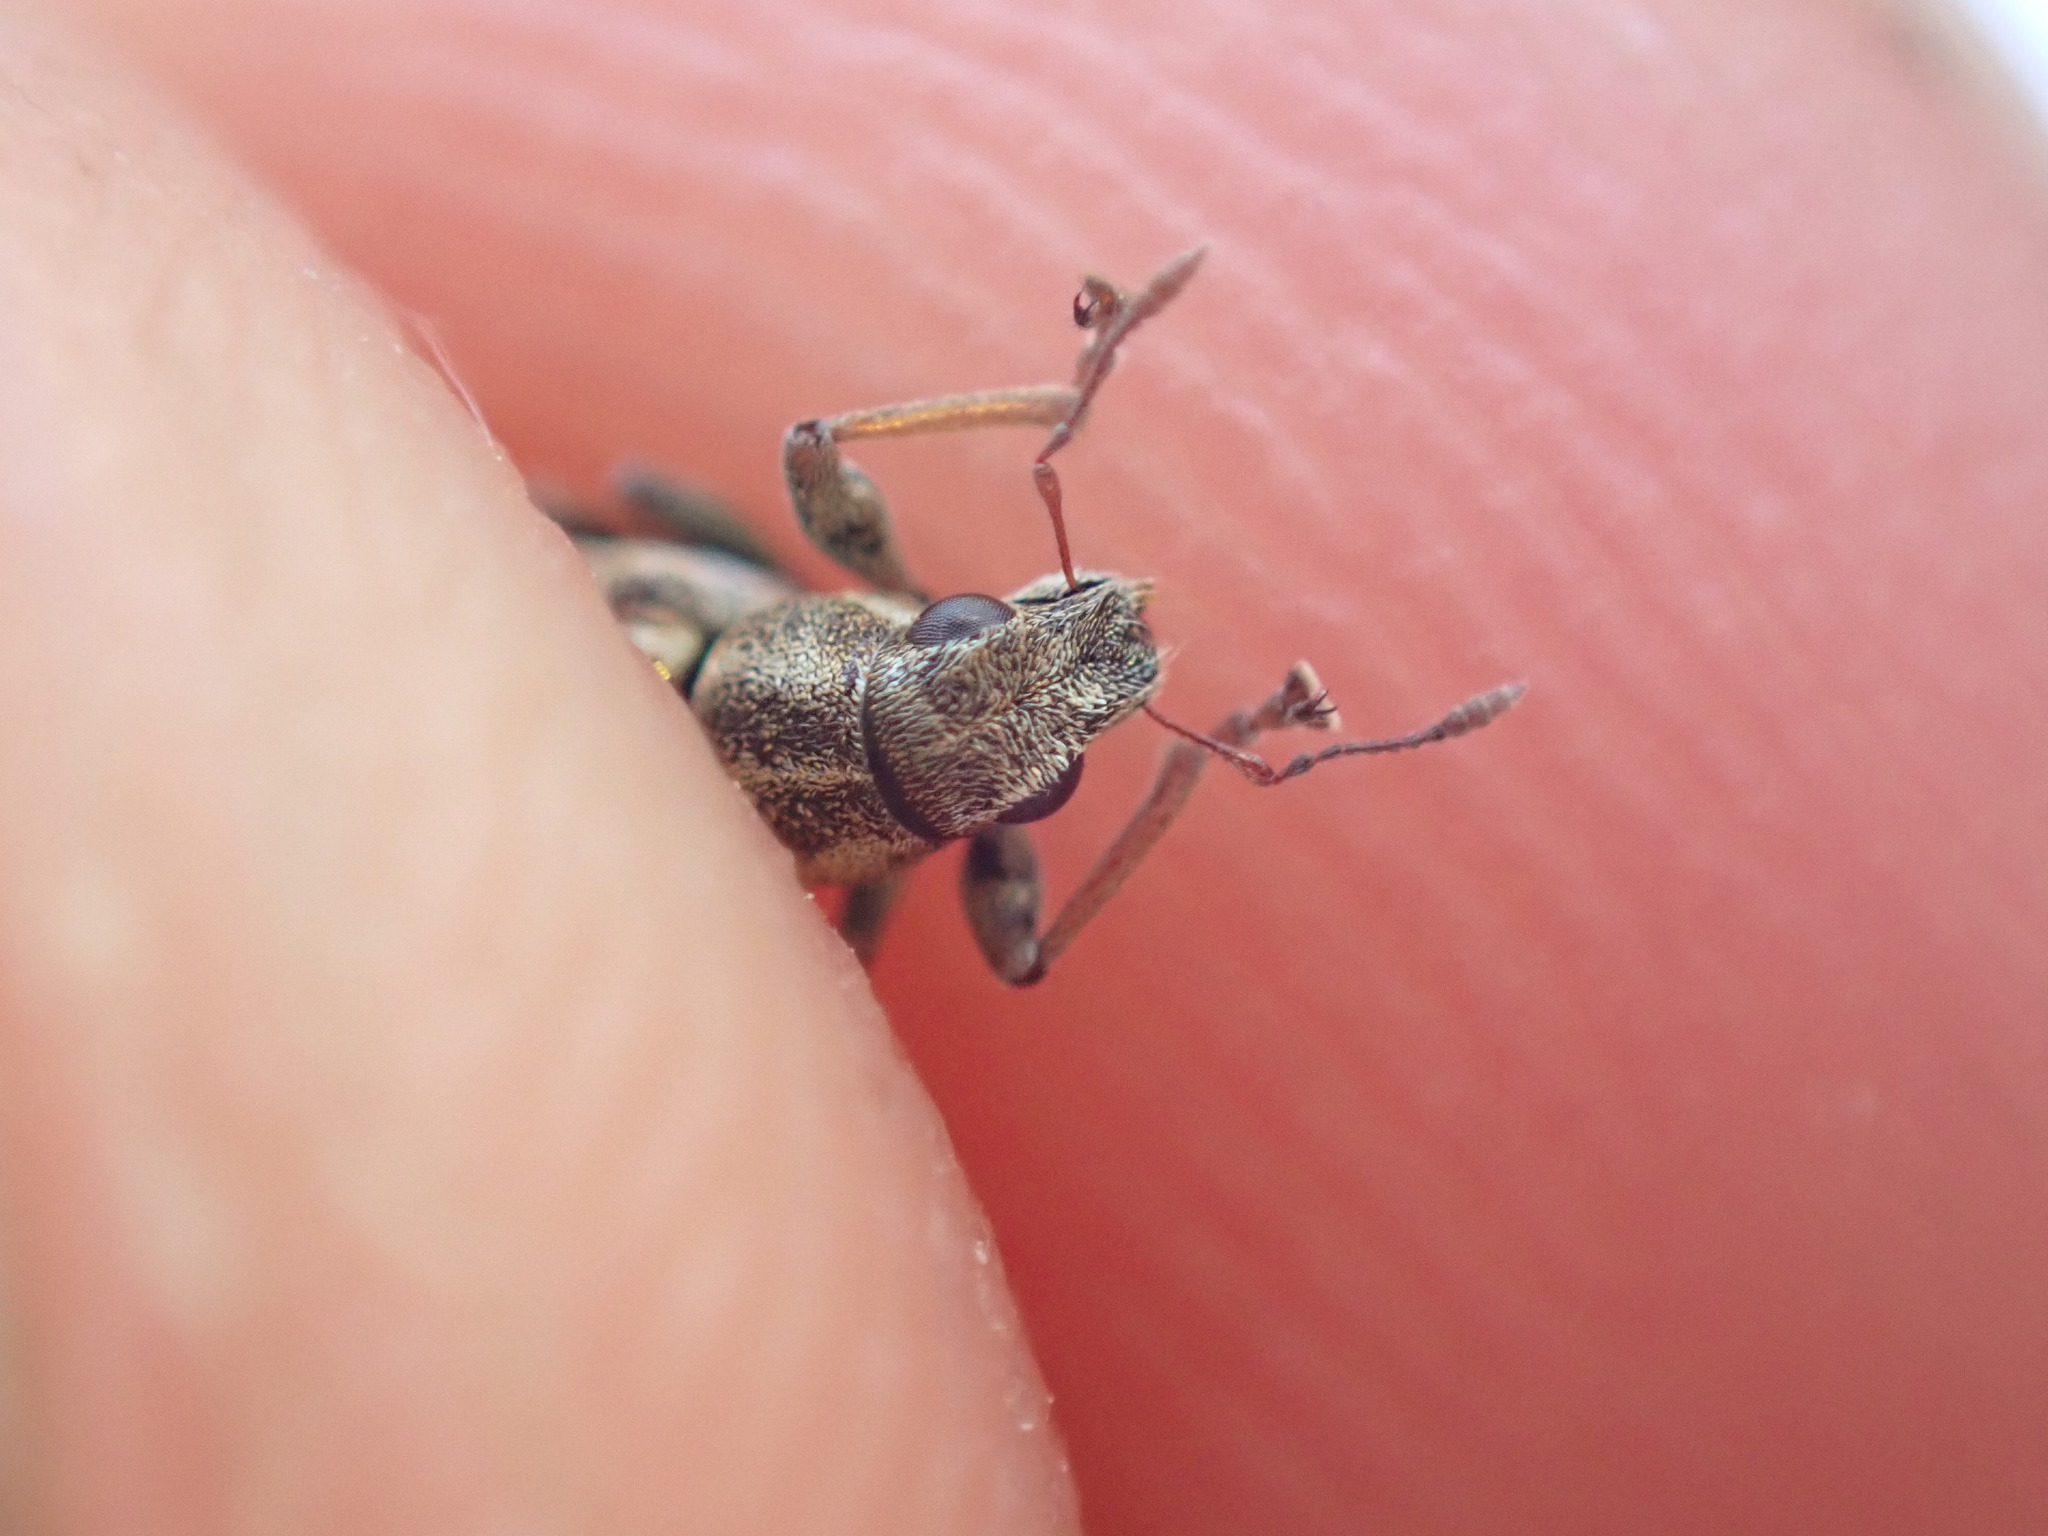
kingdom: Animalia
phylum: Arthropoda
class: Insecta
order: Coleoptera
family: Curculionidae
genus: Sitona
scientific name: Sitona lineatus
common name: Weevil
